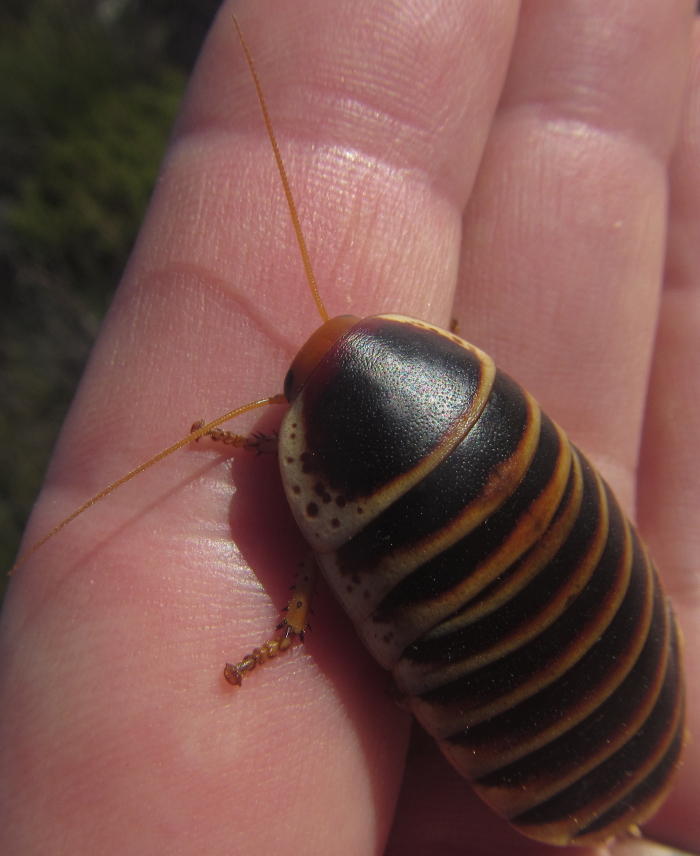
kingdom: Animalia
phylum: Arthropoda
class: Insecta
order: Blattodea
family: Blaberidae
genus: Aptera
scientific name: Aptera fusca
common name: Cape mountain cockroach
